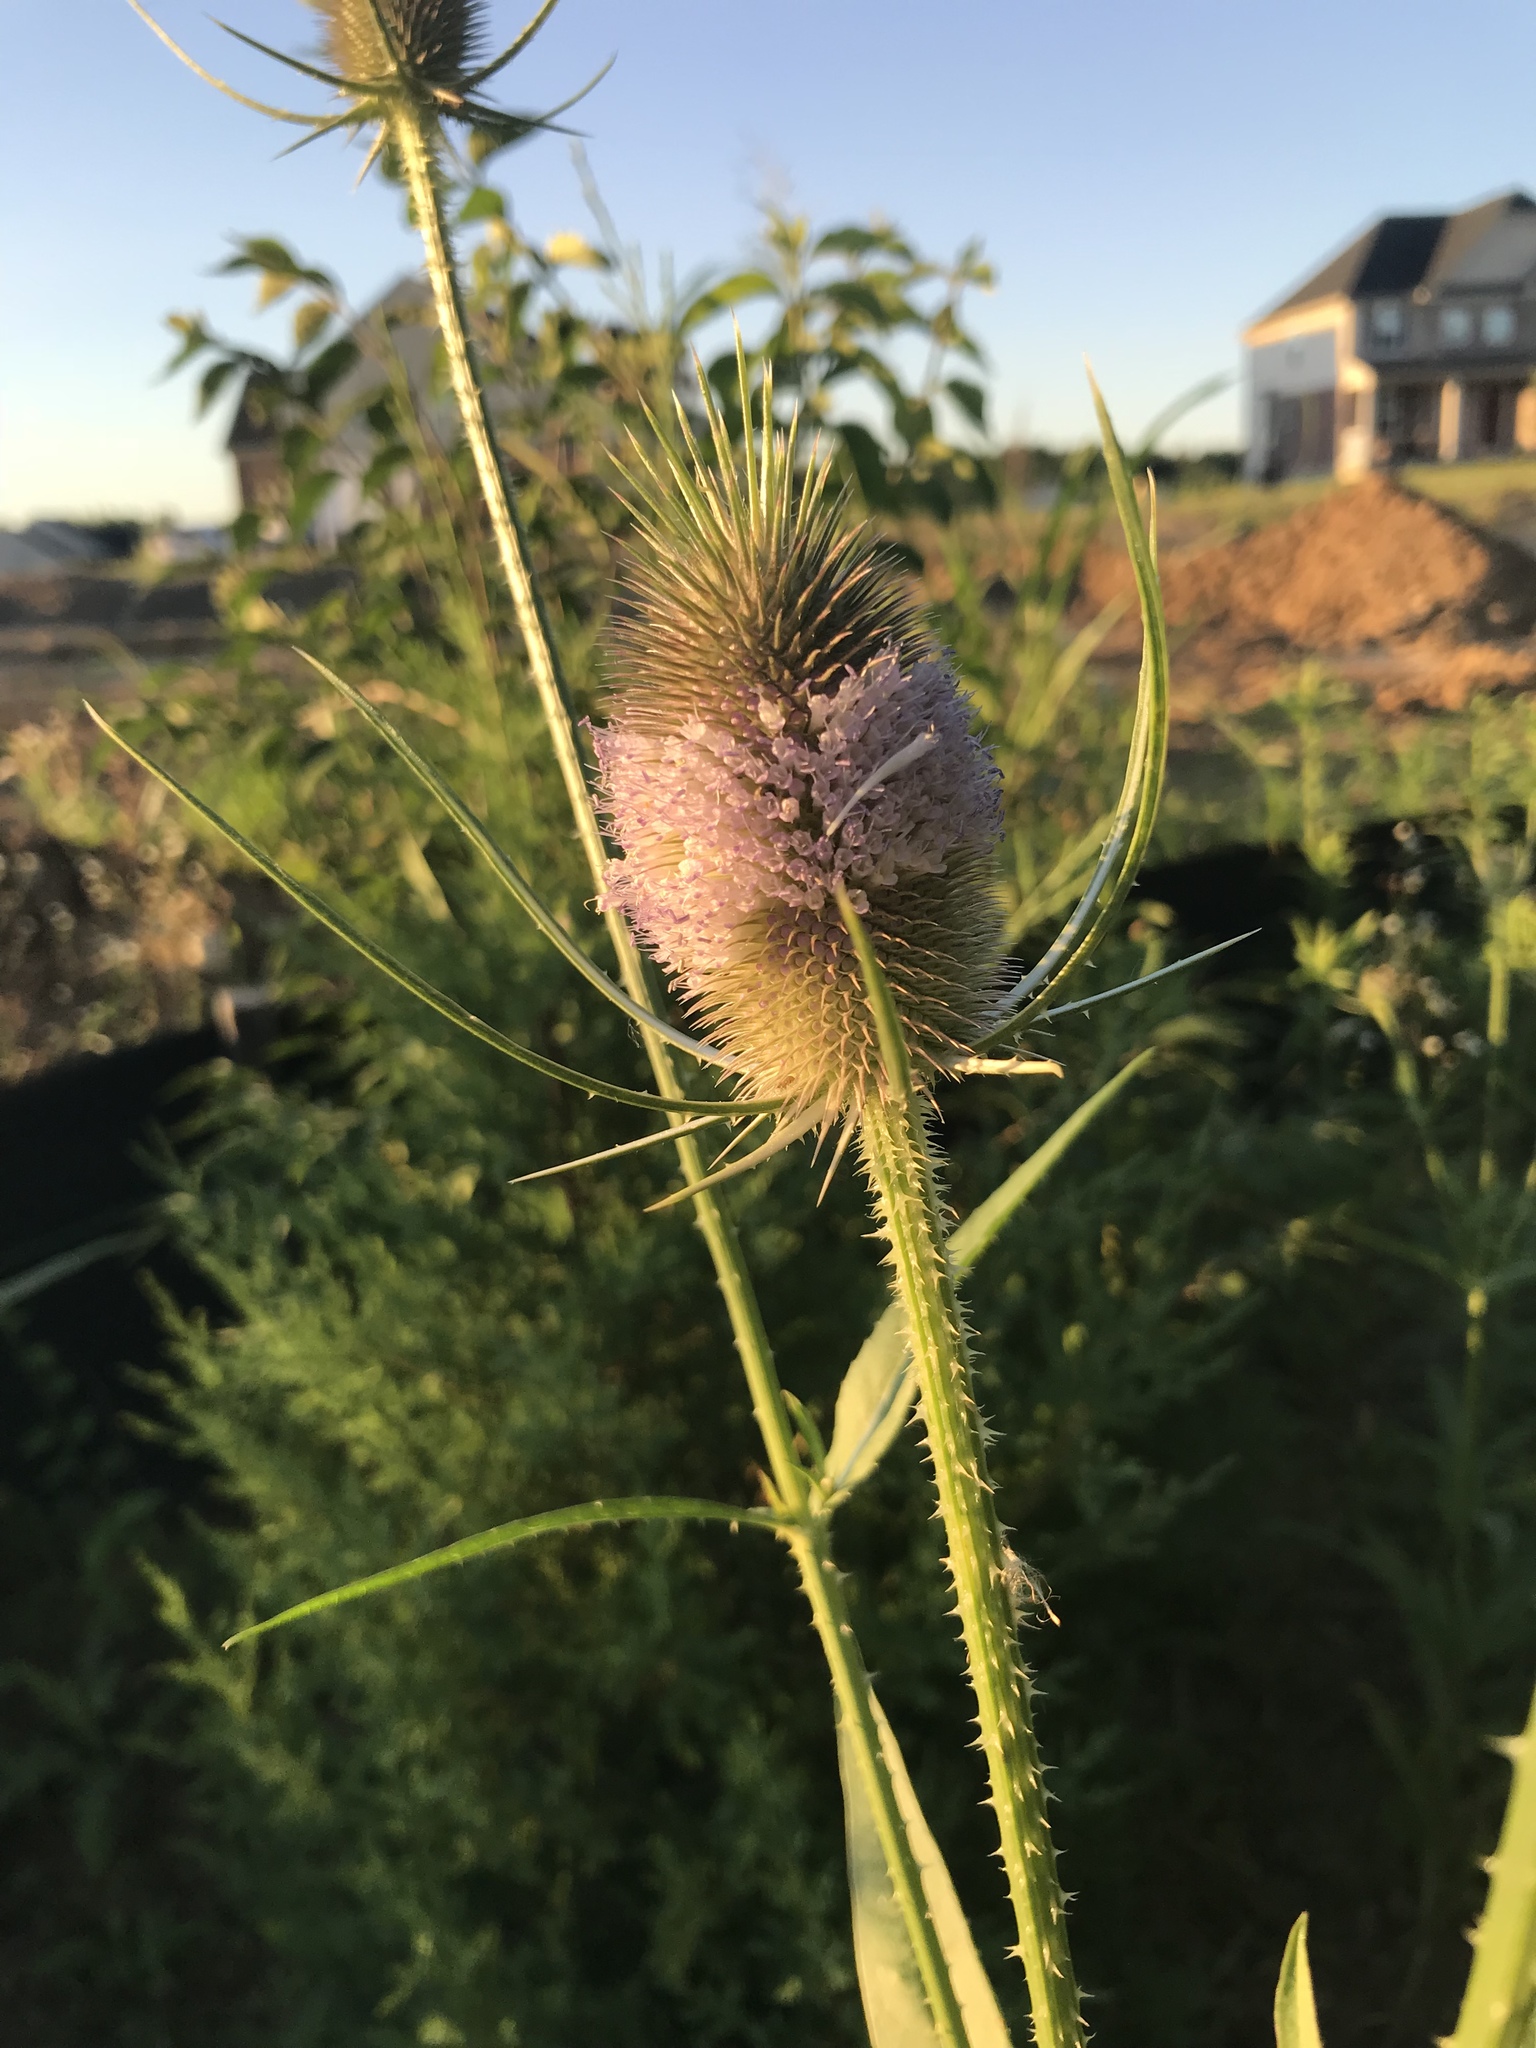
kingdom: Plantae
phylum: Tracheophyta
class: Magnoliopsida
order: Dipsacales
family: Caprifoliaceae
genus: Dipsacus
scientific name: Dipsacus fullonum
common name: Teasel
